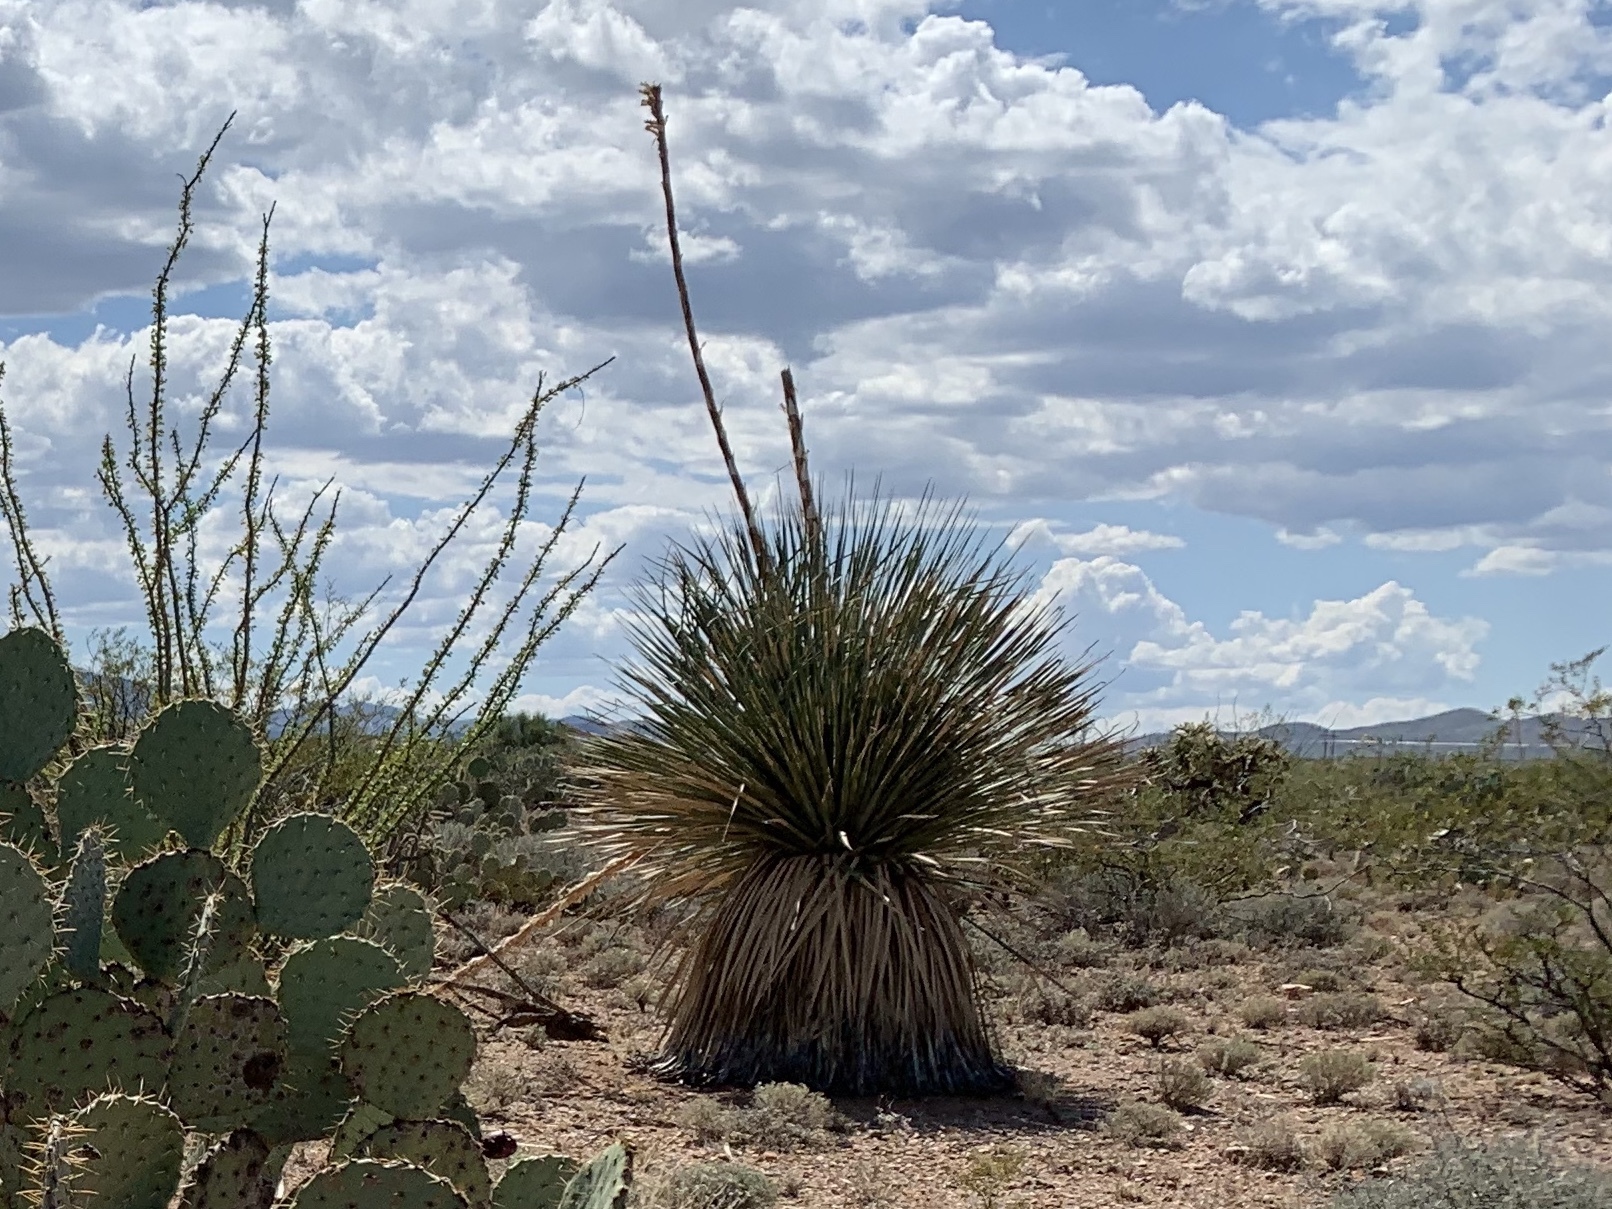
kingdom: Plantae
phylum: Tracheophyta
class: Liliopsida
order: Asparagales
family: Asparagaceae
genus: Dasylirion
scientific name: Dasylirion wheeleri
